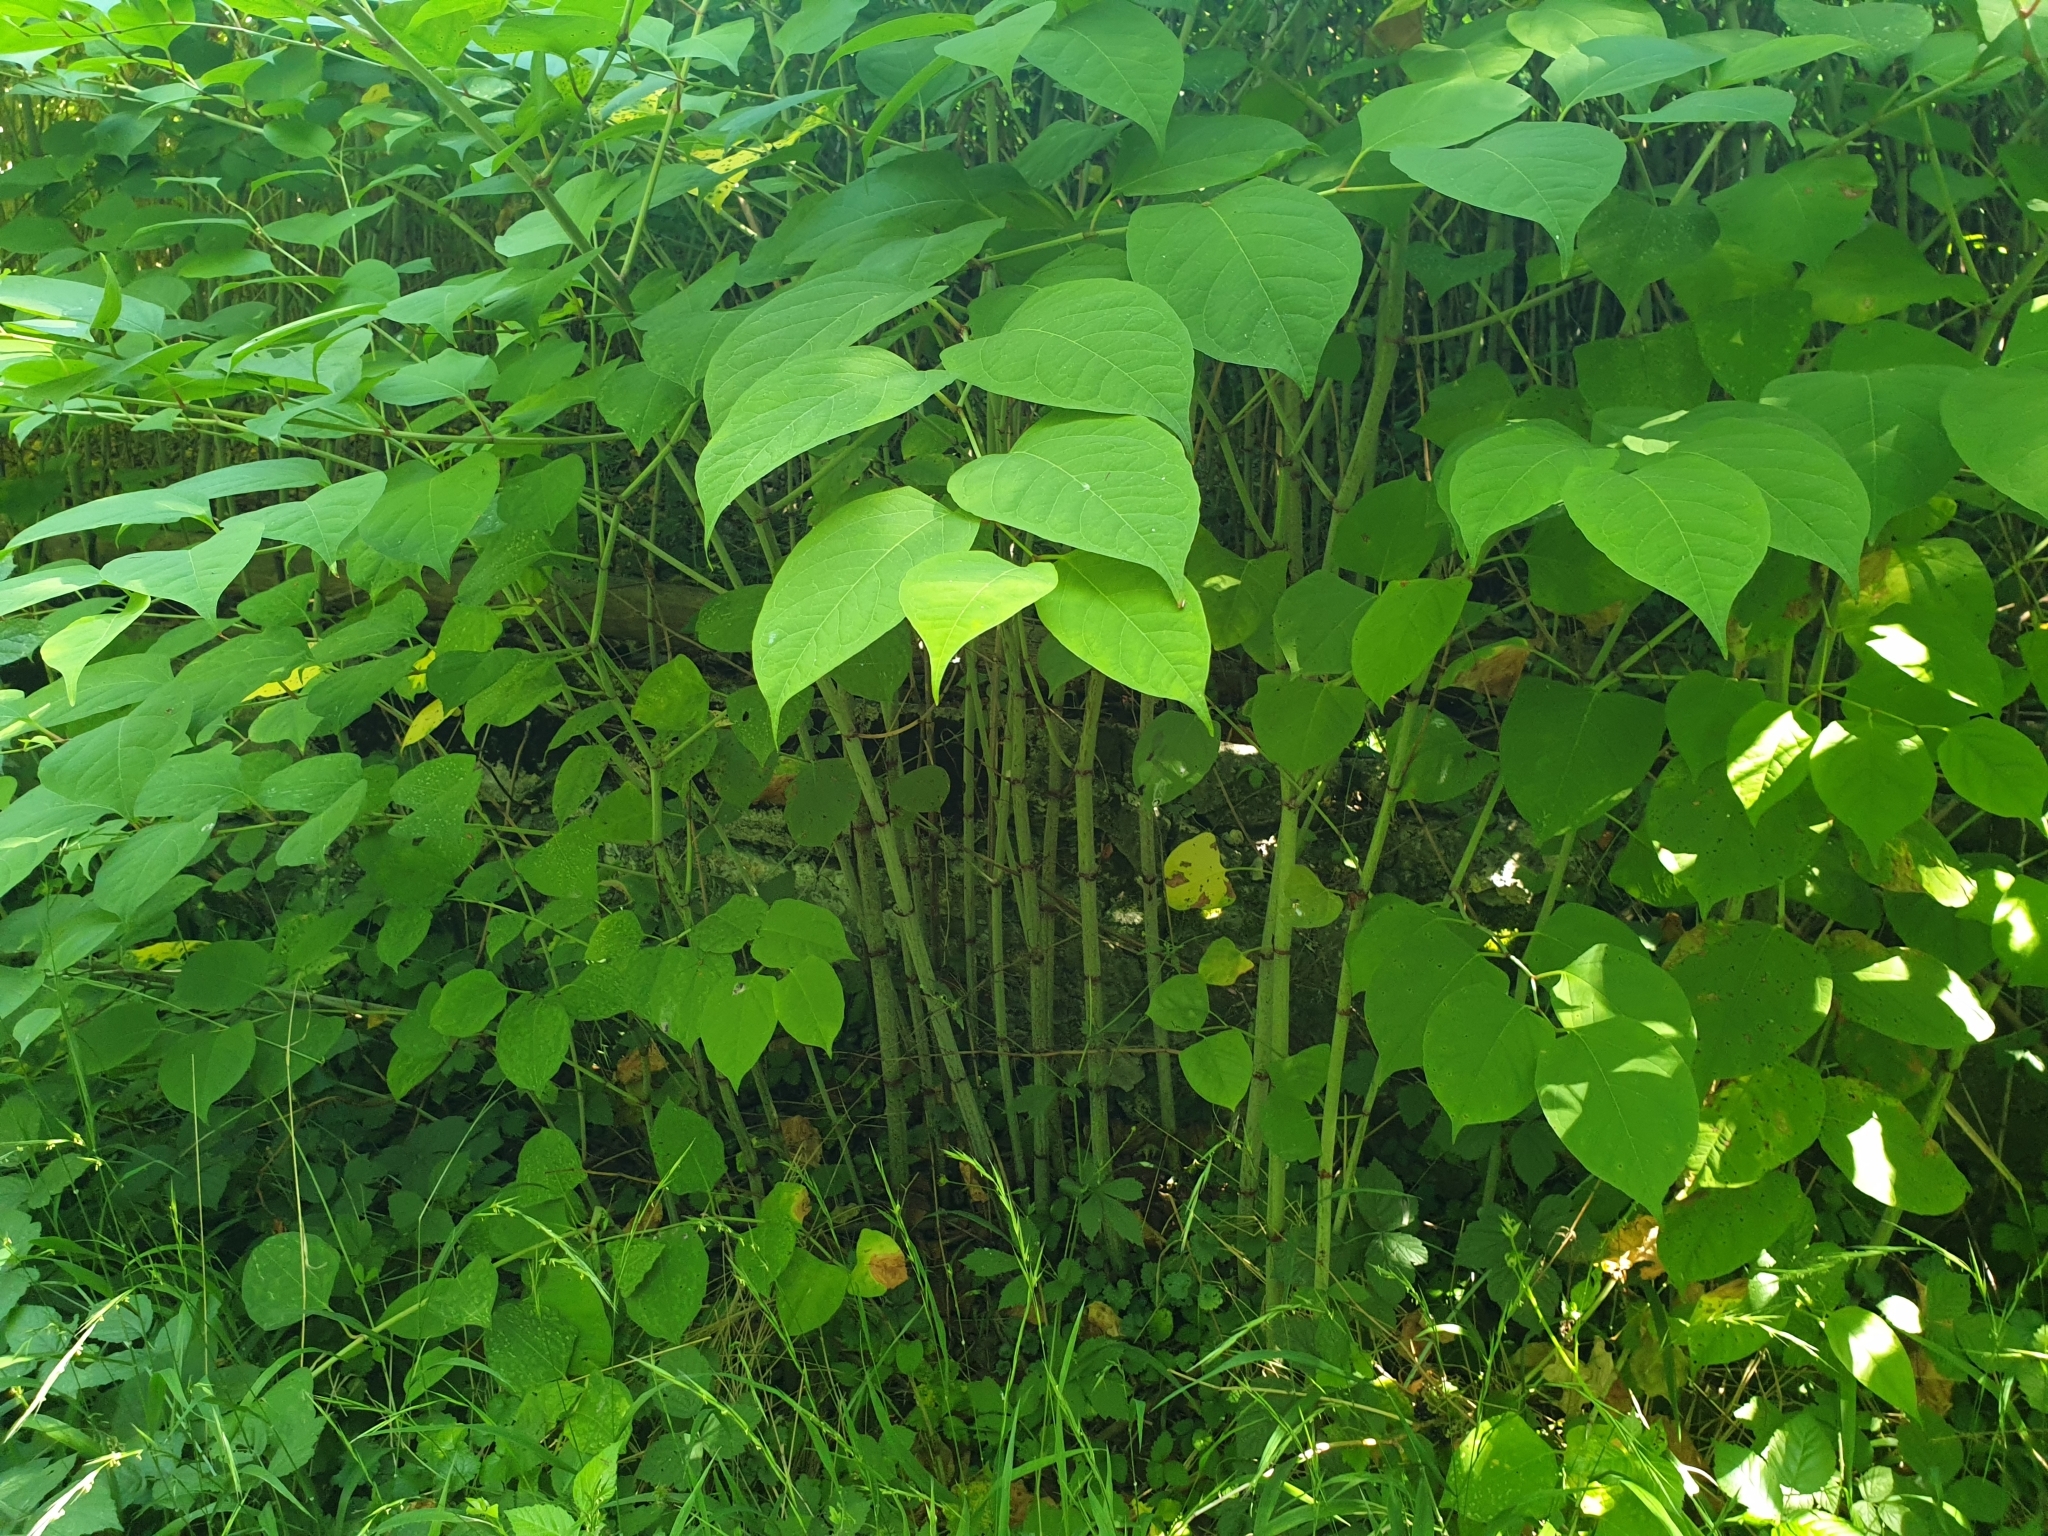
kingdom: Plantae
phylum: Tracheophyta
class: Magnoliopsida
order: Caryophyllales
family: Polygonaceae
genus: Reynoutria
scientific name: Reynoutria japonica
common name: Japanese knotweed
